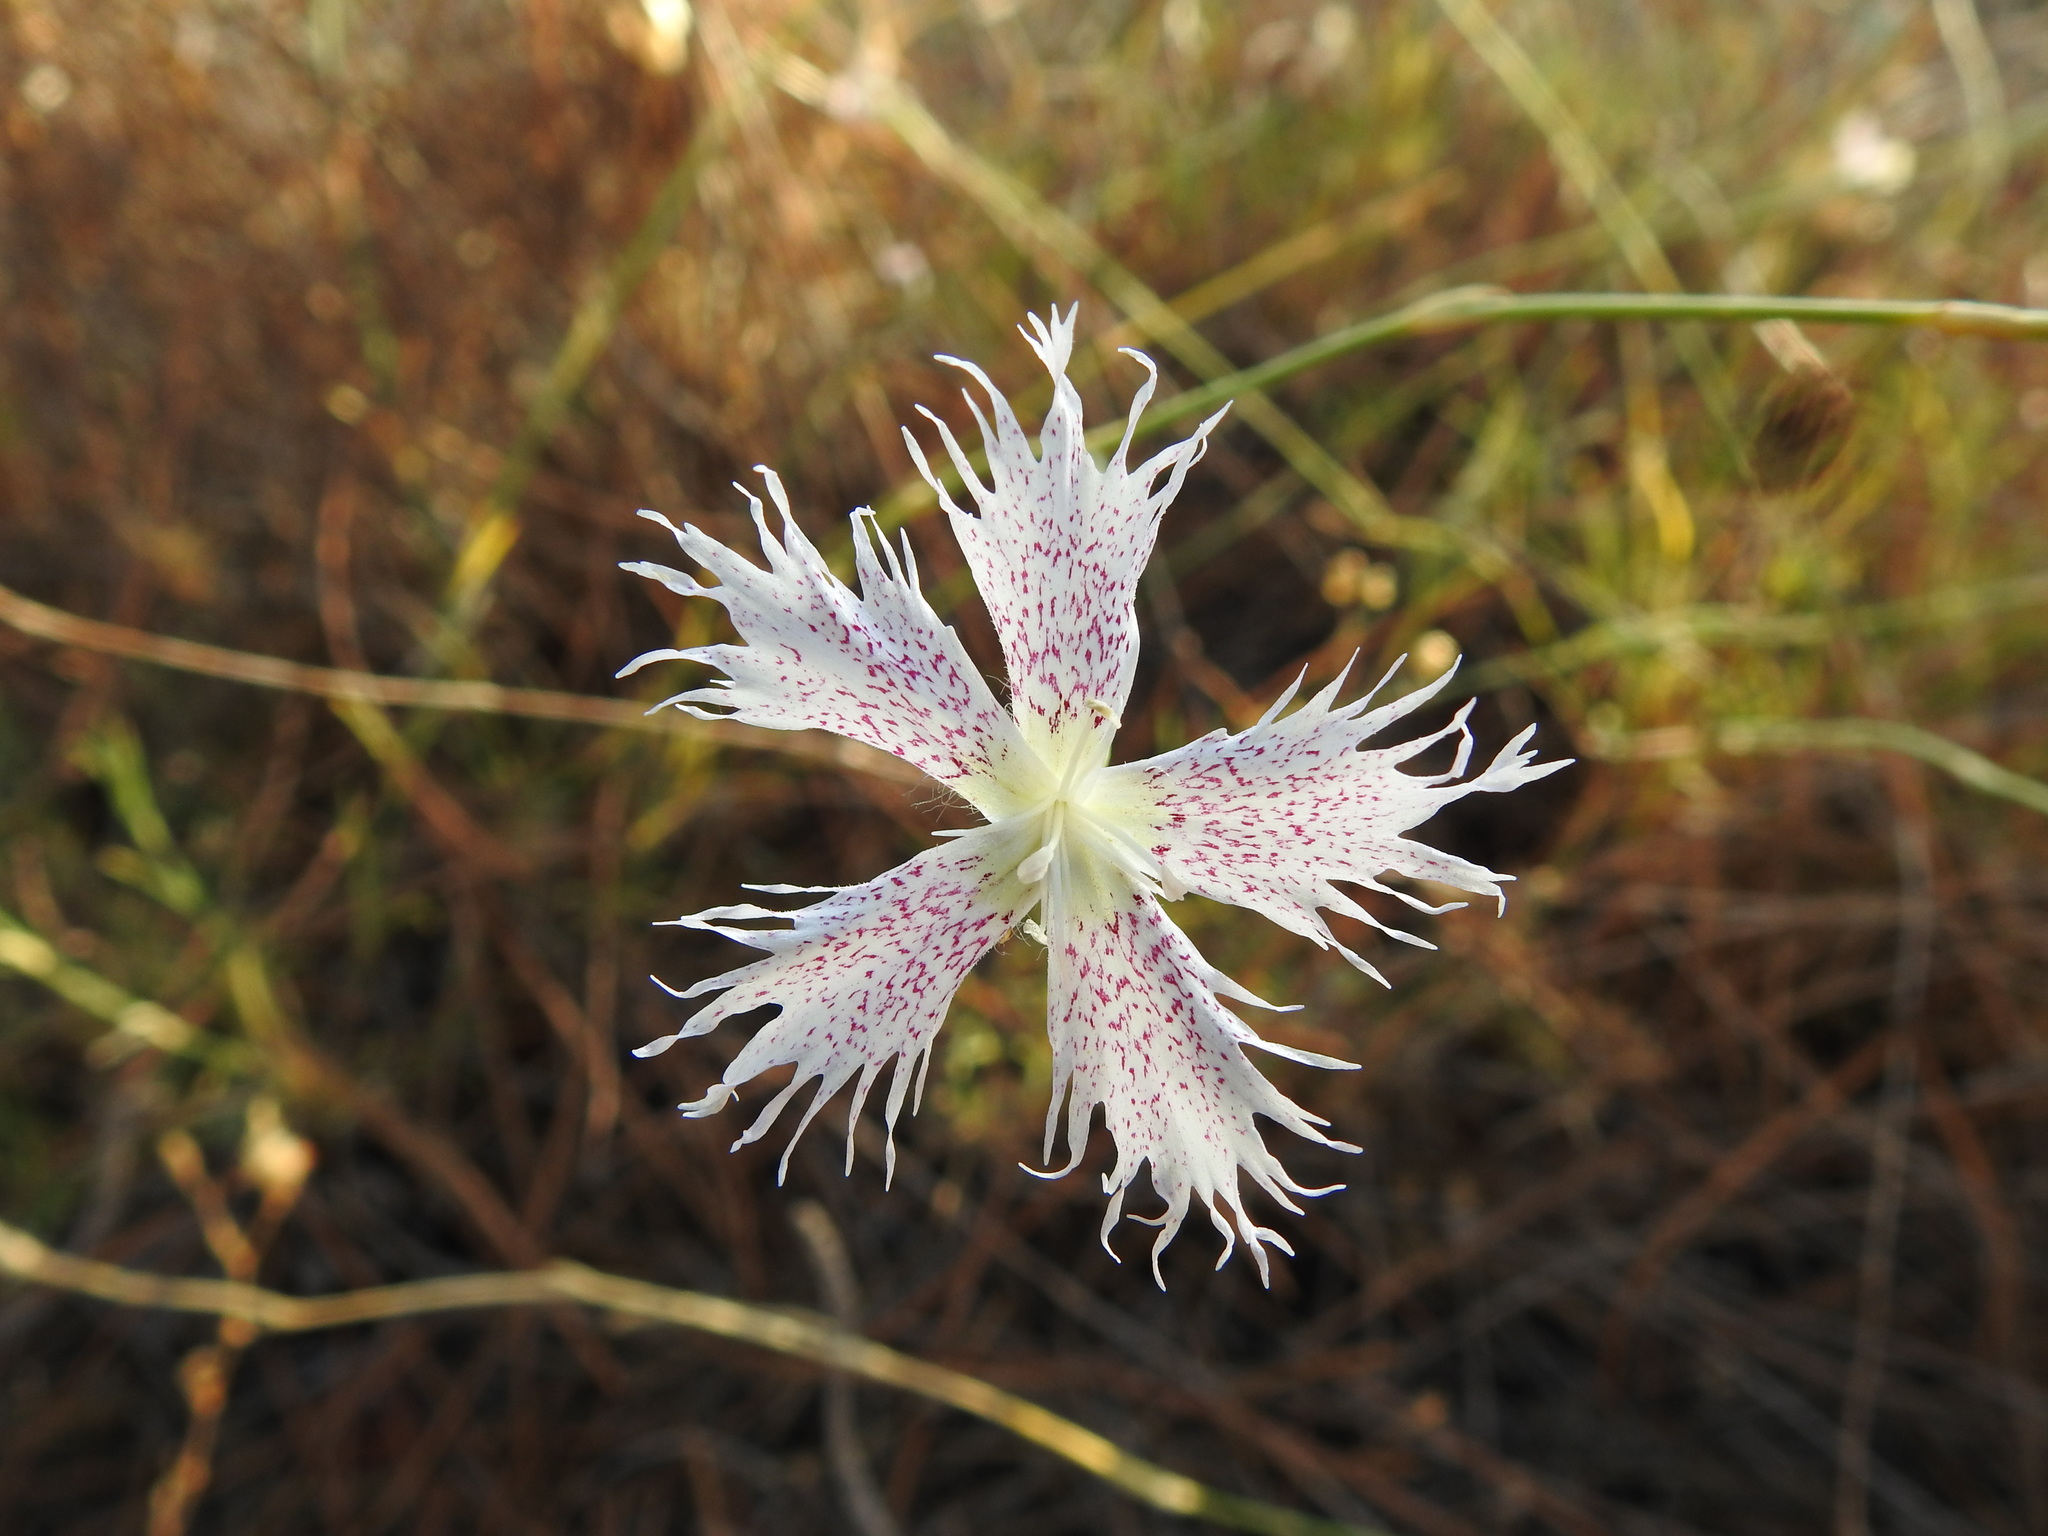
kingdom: Plantae
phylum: Tracheophyta
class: Magnoliopsida
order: Caryophyllales
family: Caryophyllaceae
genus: Dianthus
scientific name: Dianthus broteri
